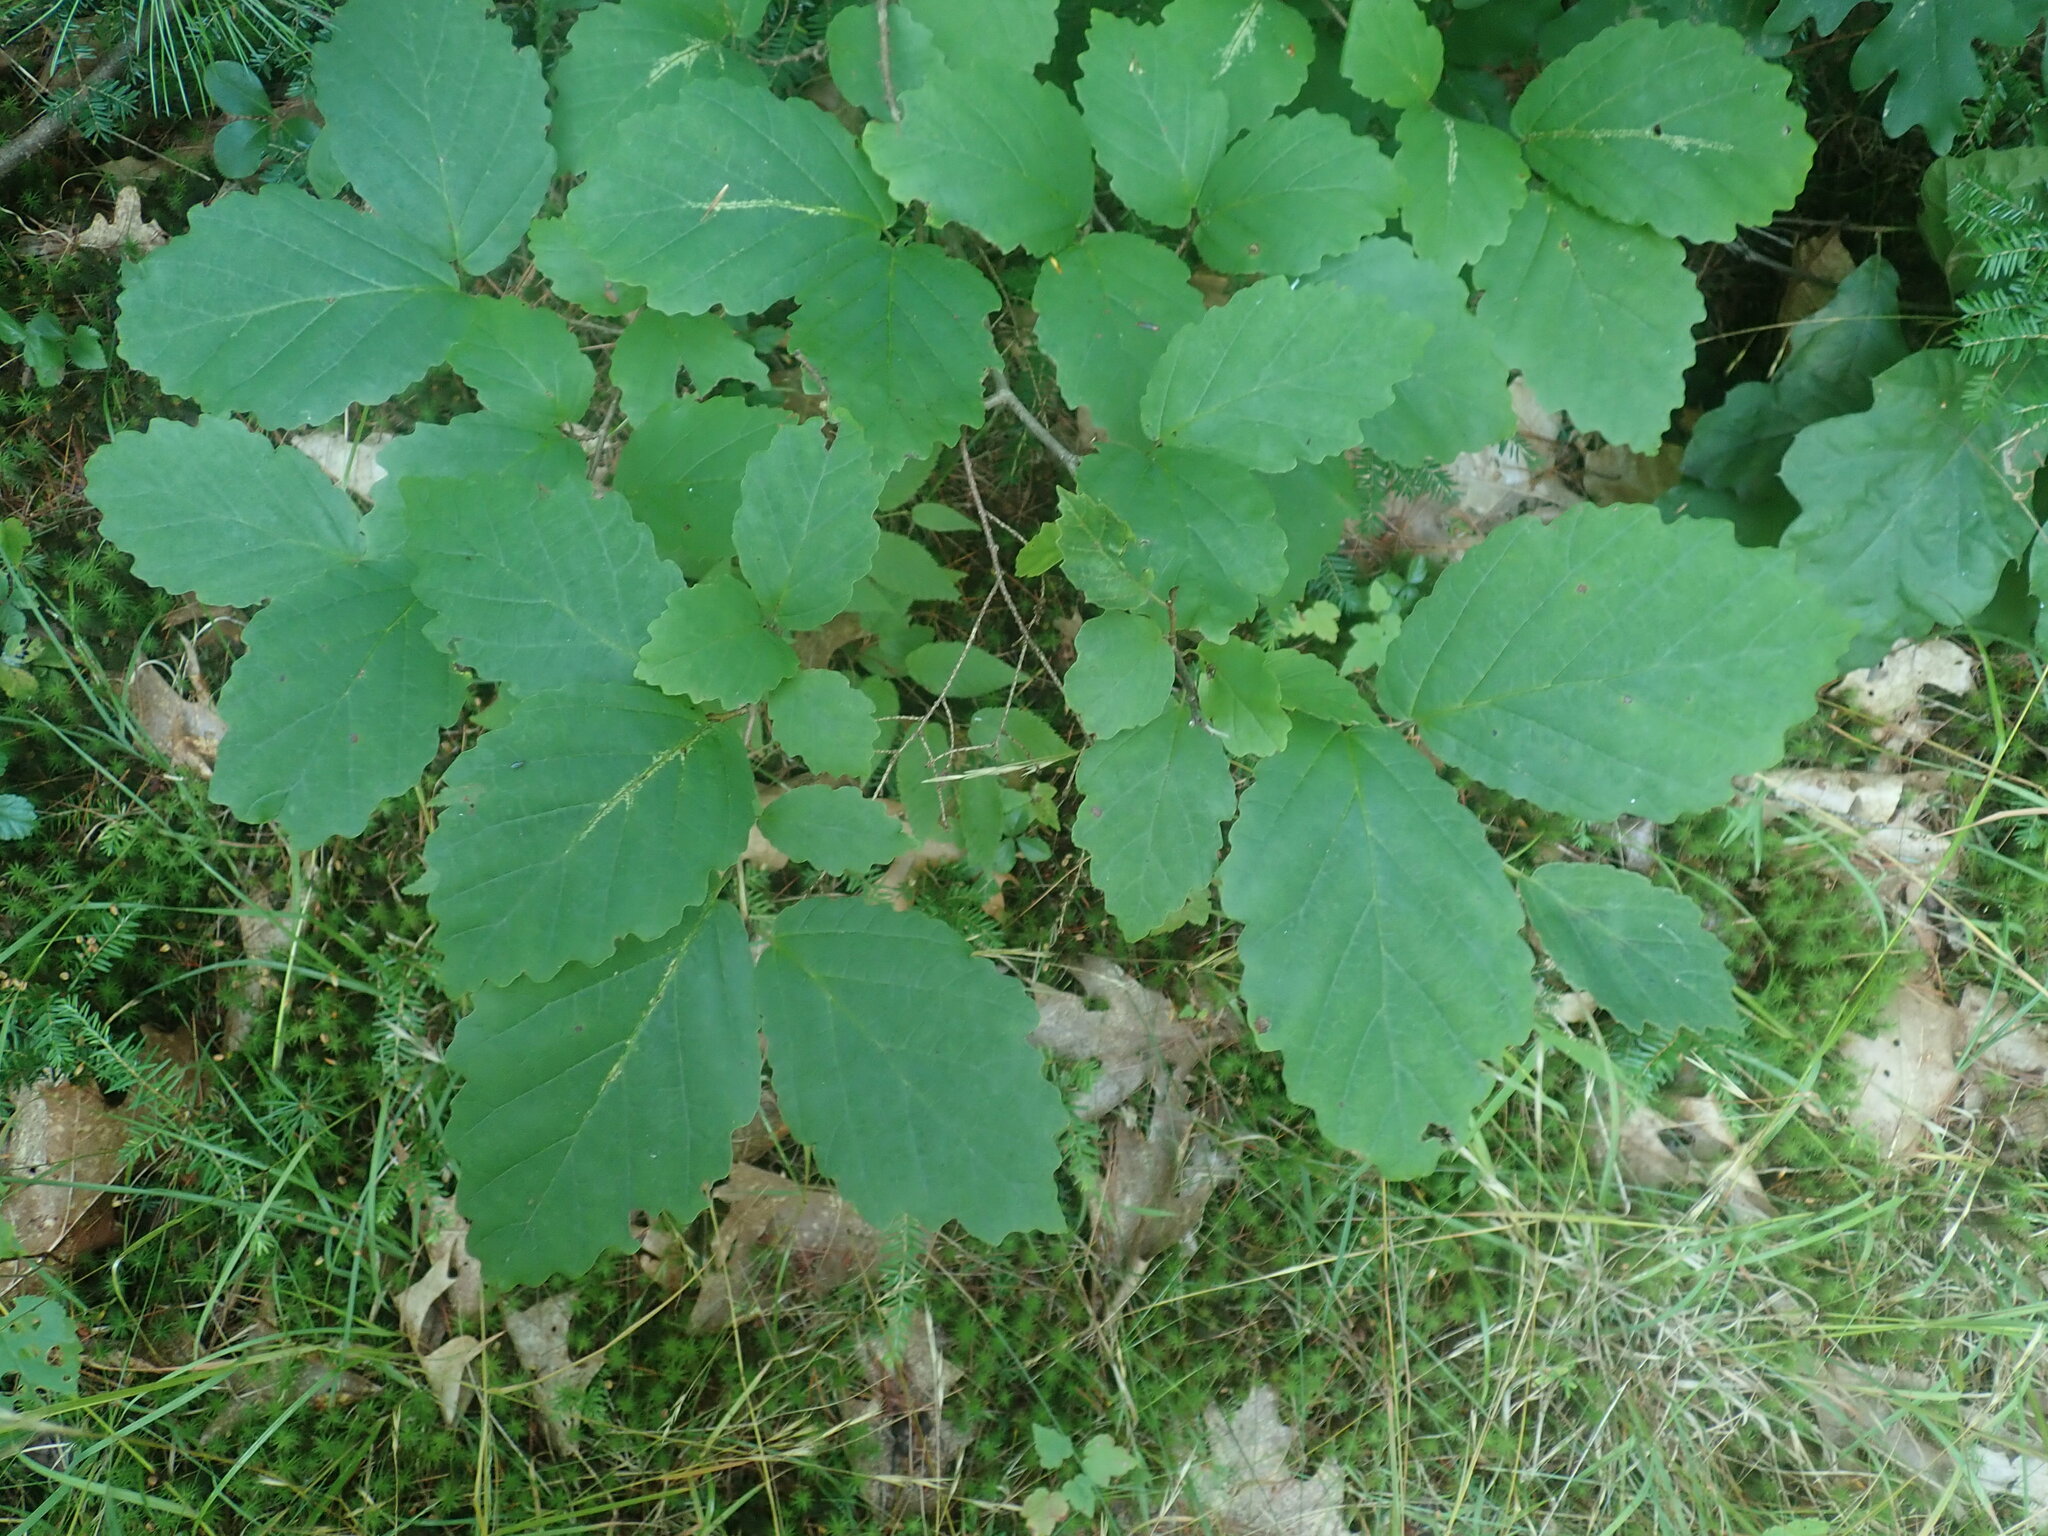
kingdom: Plantae
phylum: Tracheophyta
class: Magnoliopsida
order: Saxifragales
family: Hamamelidaceae
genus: Hamamelis
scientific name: Hamamelis virginiana
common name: Witch-hazel
